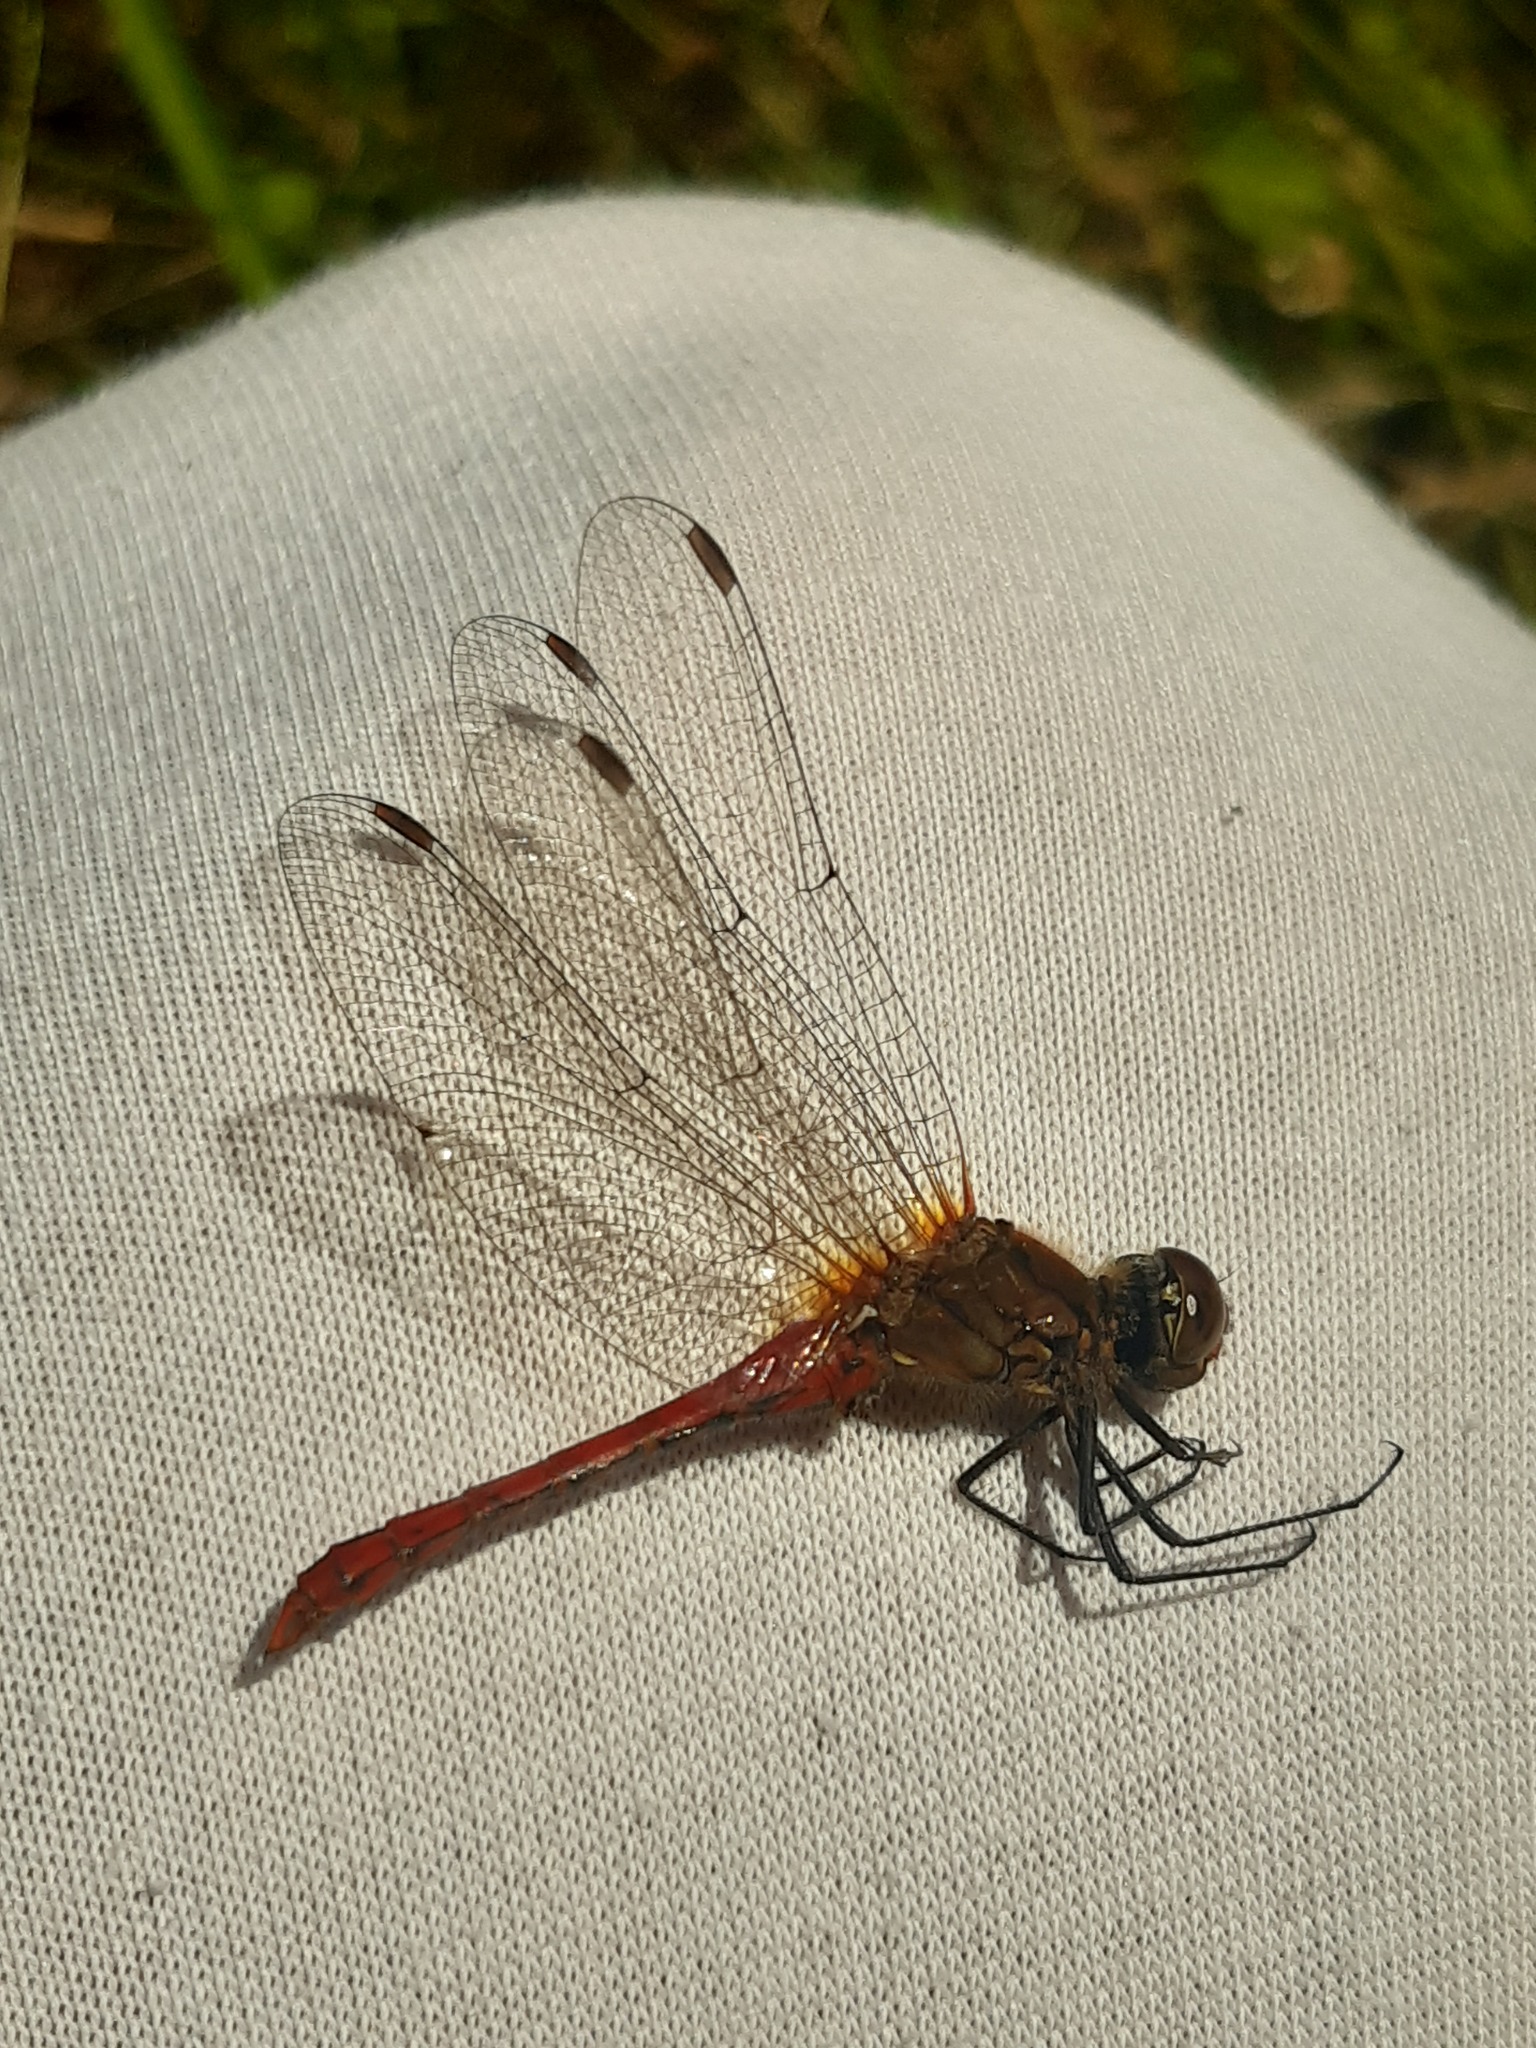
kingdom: Animalia
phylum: Arthropoda
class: Insecta
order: Odonata
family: Libellulidae
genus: Sympetrum
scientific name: Sympetrum sanguineum
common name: Ruddy darter
